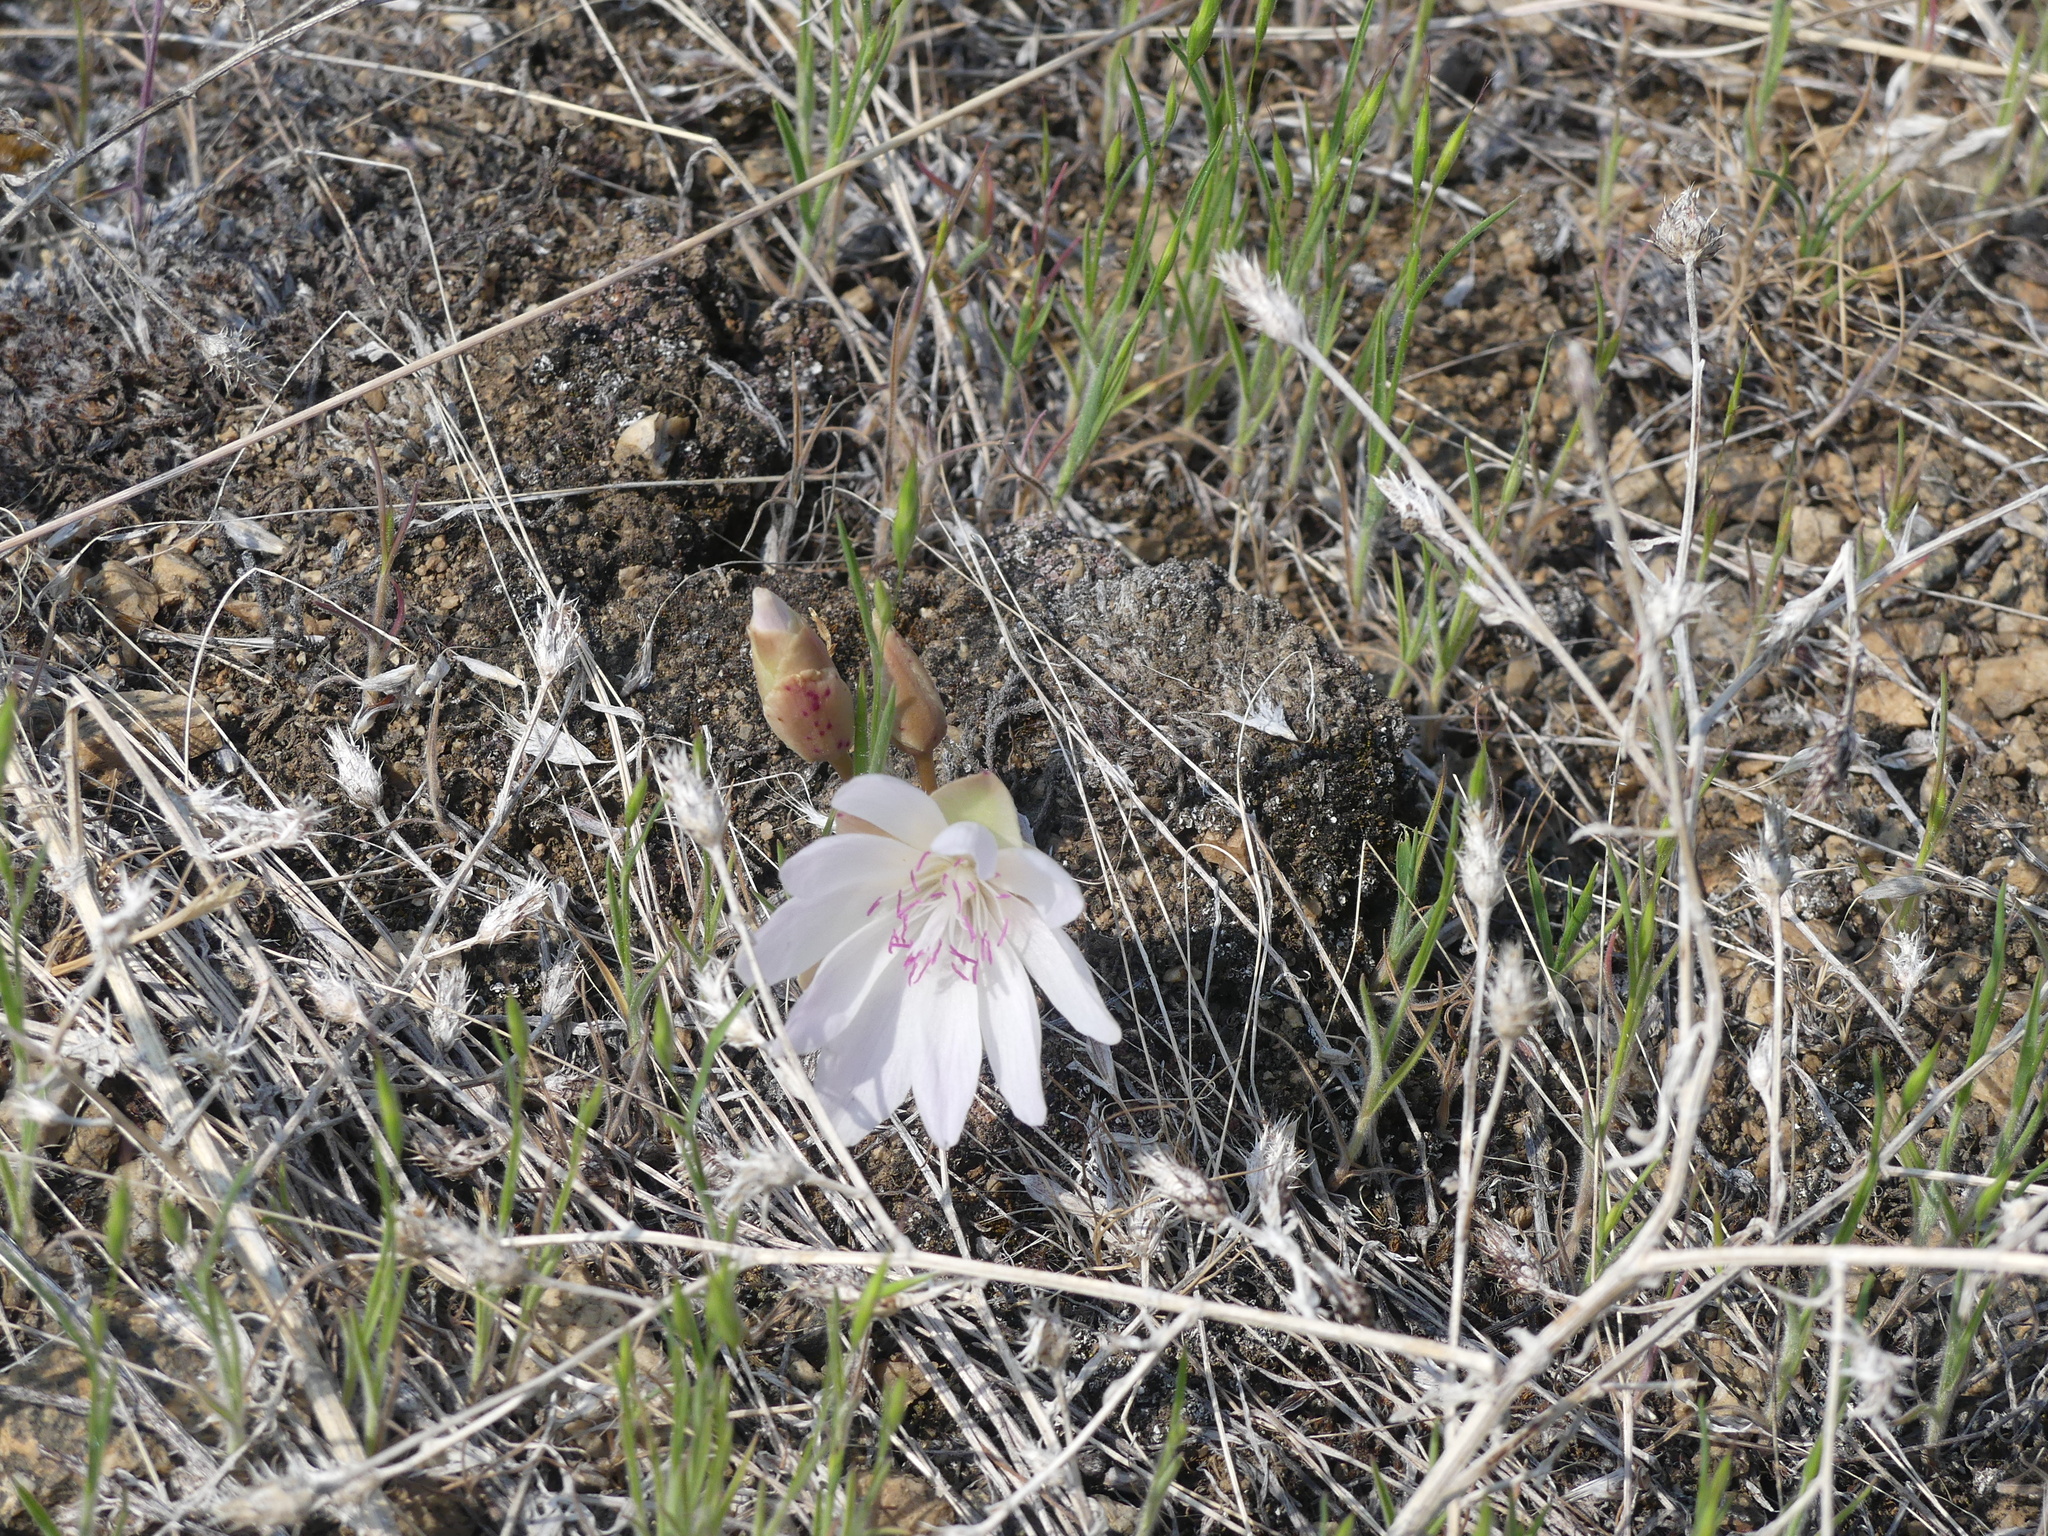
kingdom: Plantae
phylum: Tracheophyta
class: Magnoliopsida
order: Caryophyllales
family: Montiaceae
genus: Lewisia
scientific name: Lewisia rediviva
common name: Bitter-root
